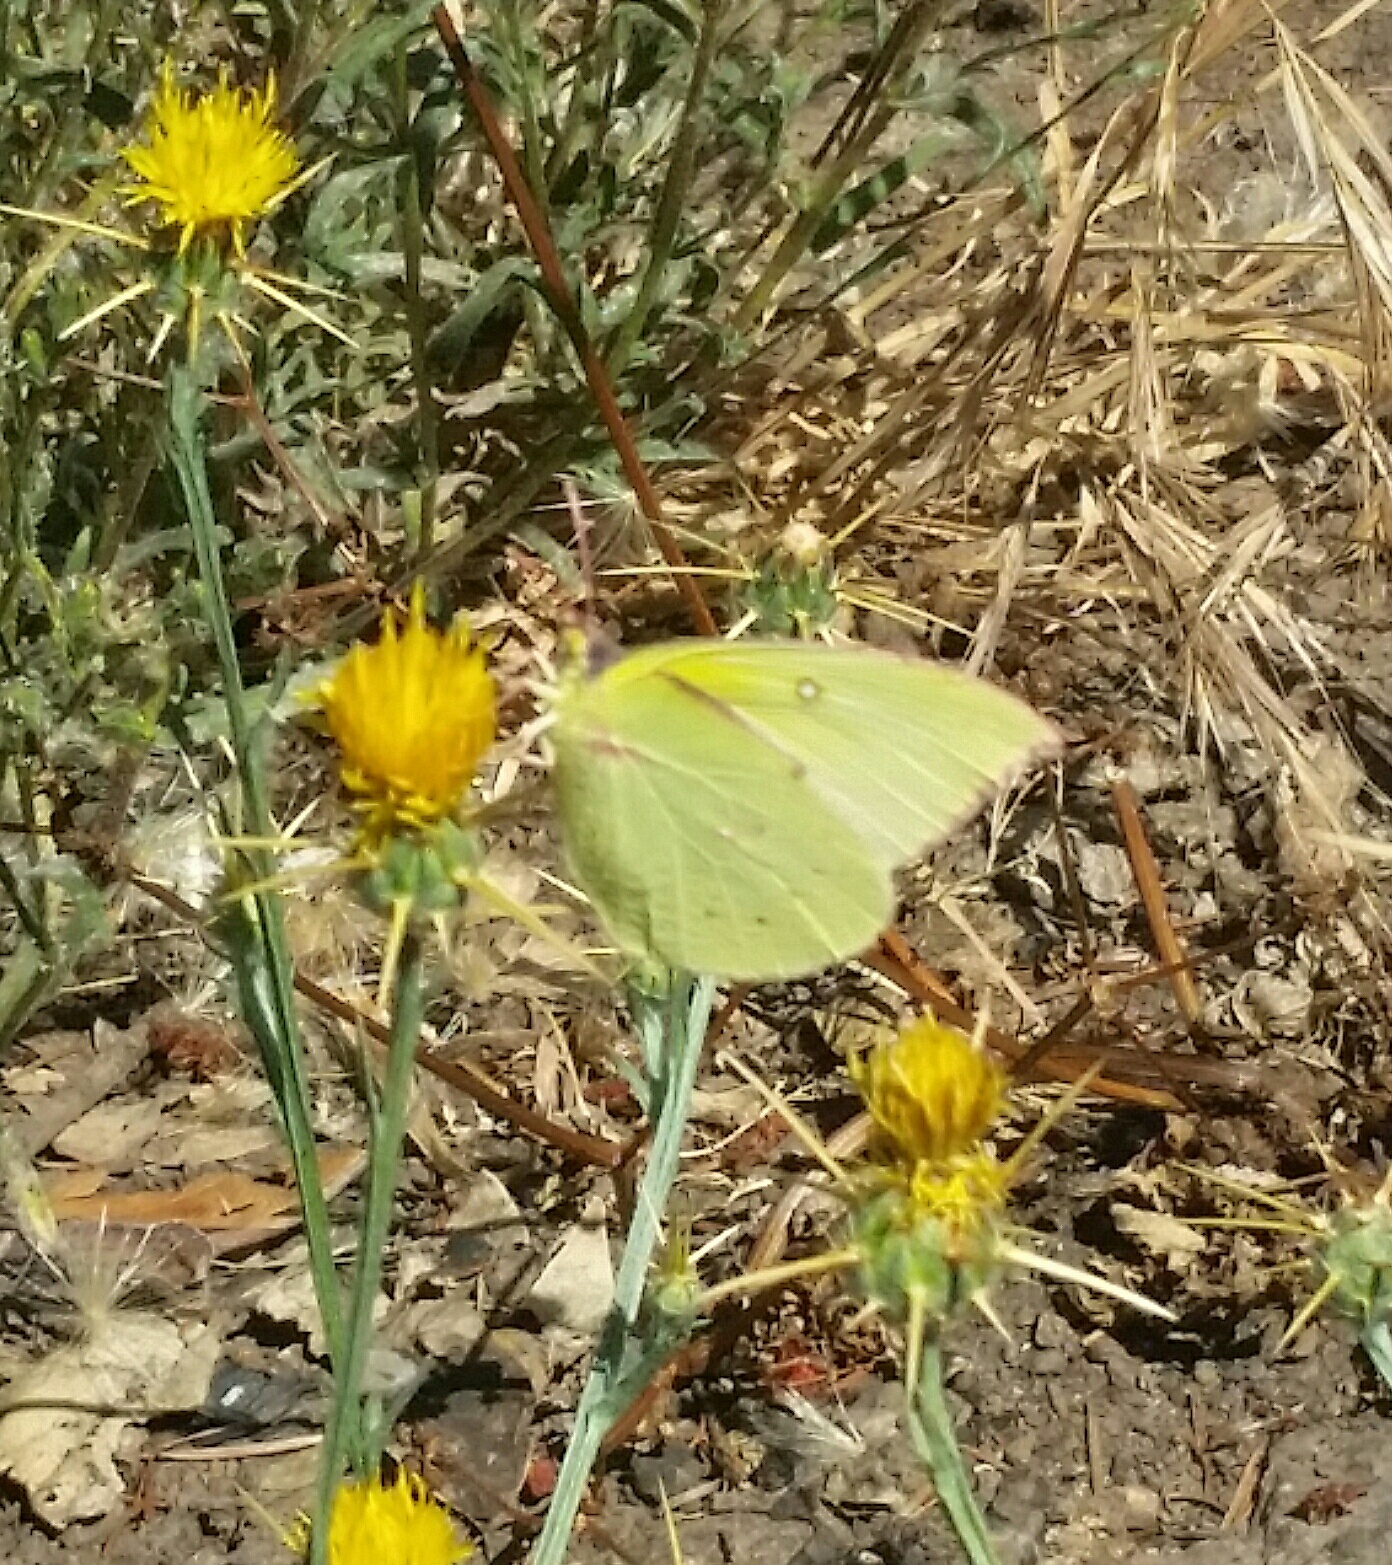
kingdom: Animalia
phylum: Arthropoda
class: Insecta
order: Lepidoptera
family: Pieridae
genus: Zerene
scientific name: Zerene eurydice
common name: California dogface
